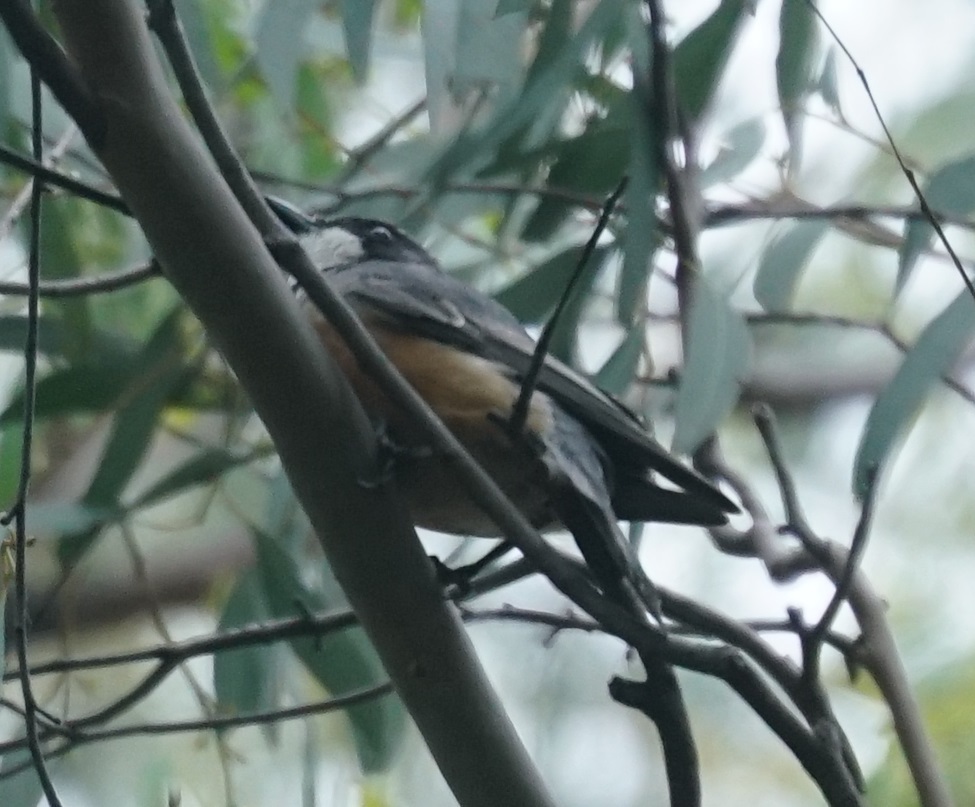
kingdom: Animalia
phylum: Chordata
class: Aves
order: Passeriformes
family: Pachycephalidae
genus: Pachycephala
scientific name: Pachycephala rufiventris
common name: Rufous whistler
